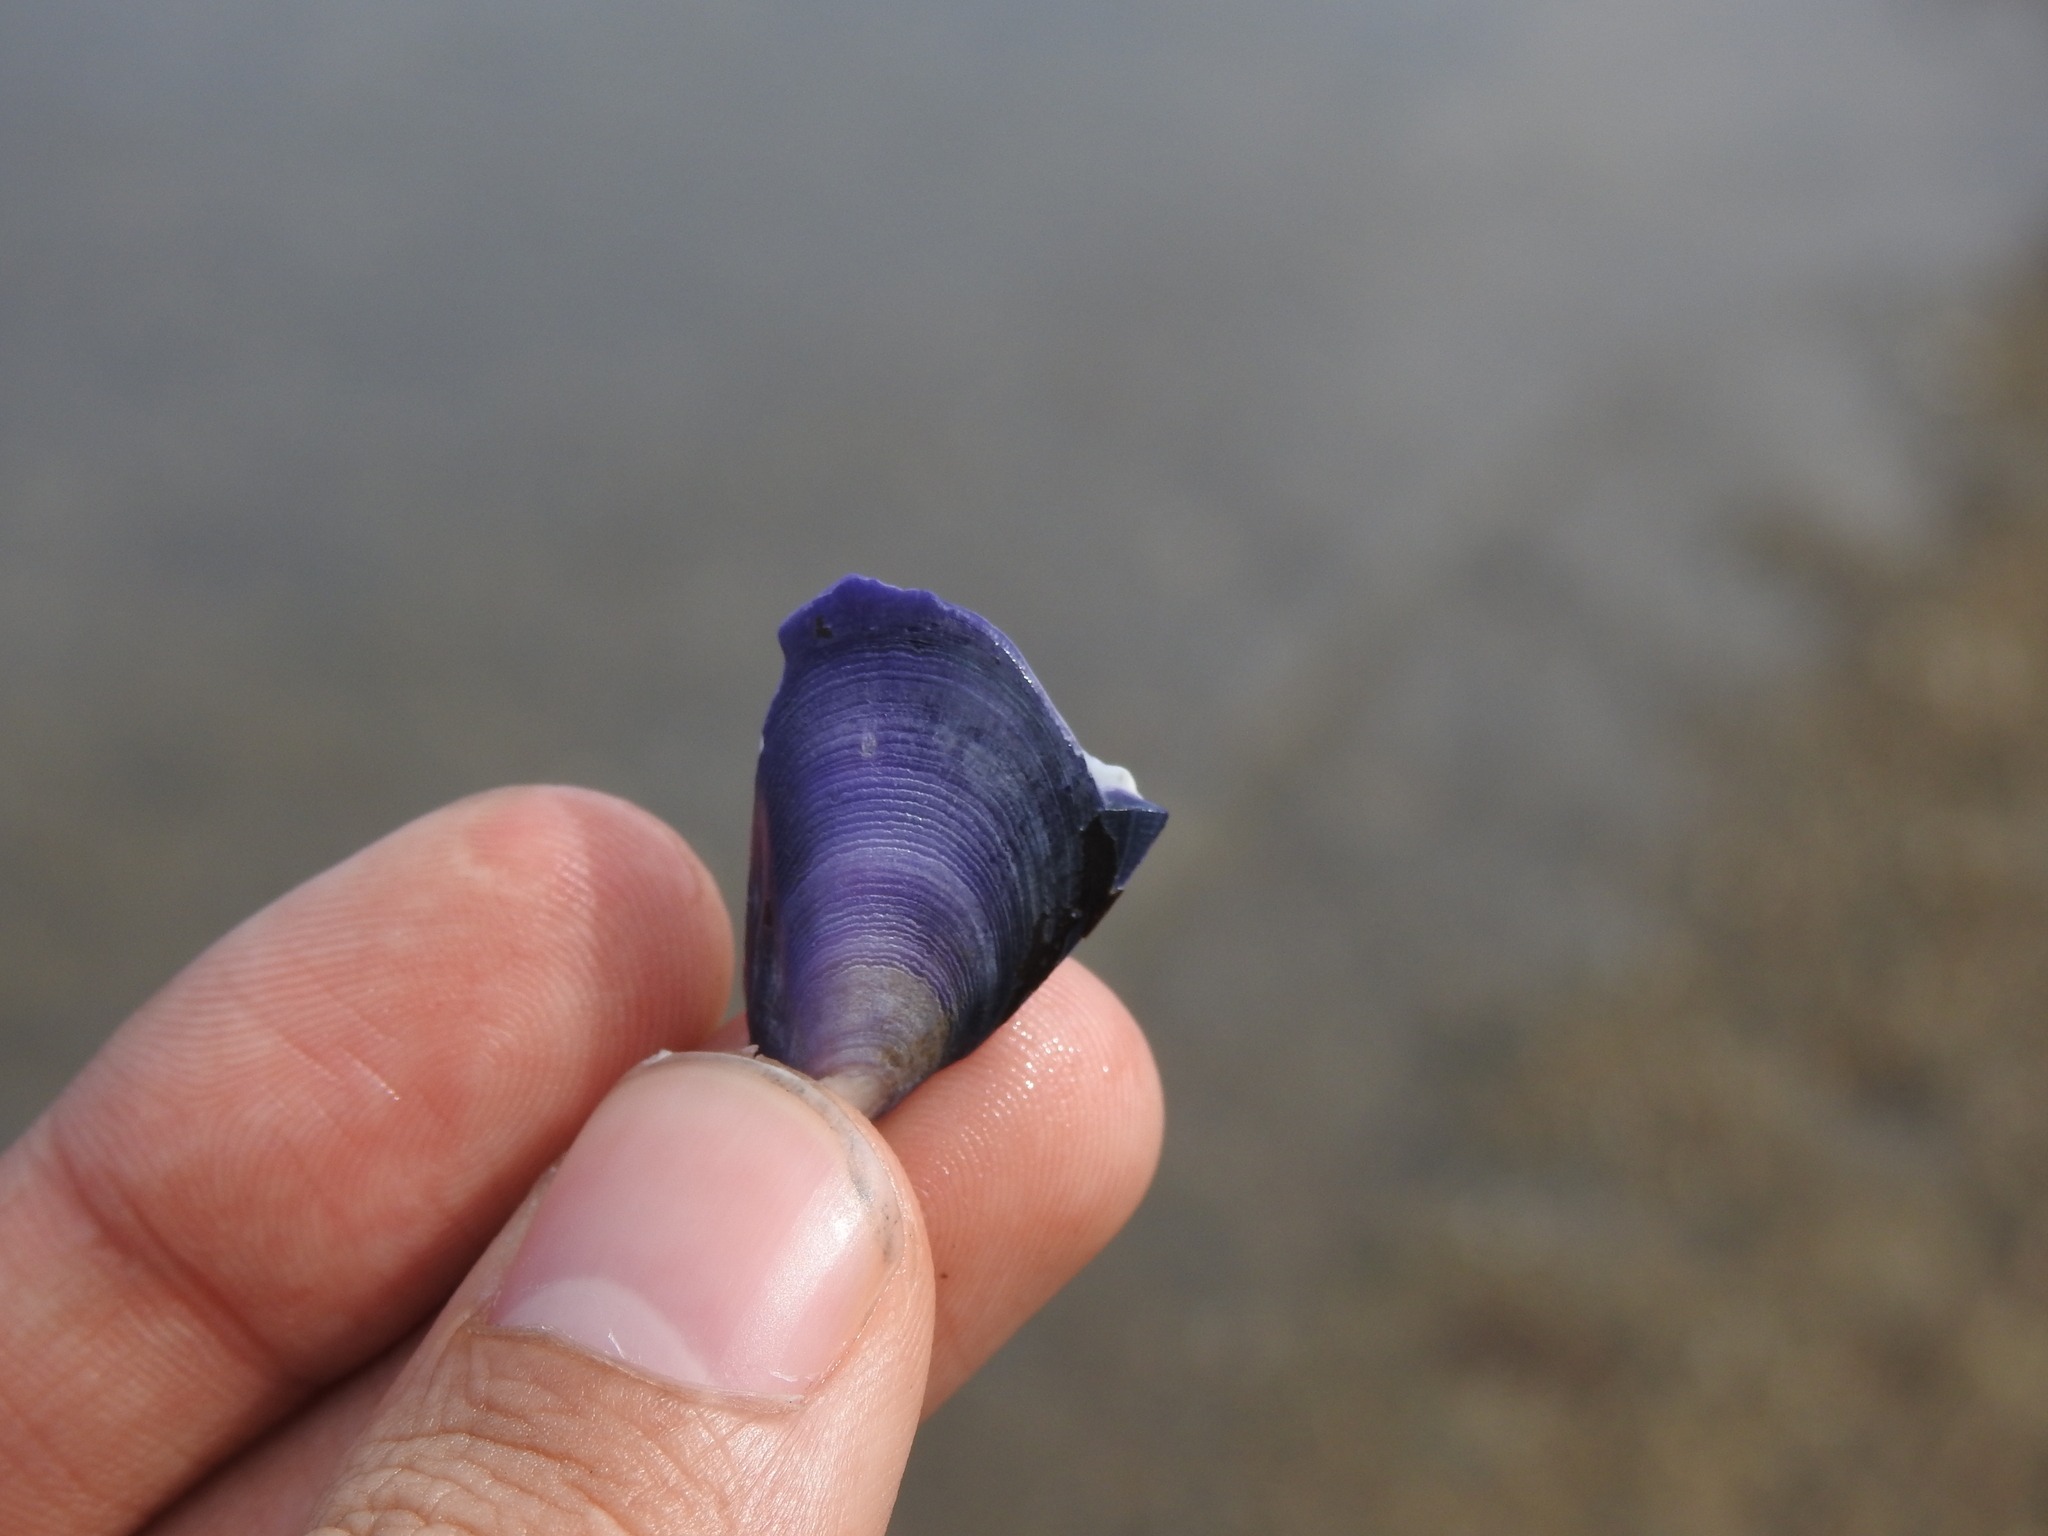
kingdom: Animalia
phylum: Mollusca
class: Bivalvia
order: Mytilida
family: Mytilidae
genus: Mytilus
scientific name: Mytilus edulis
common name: Blue mussel
